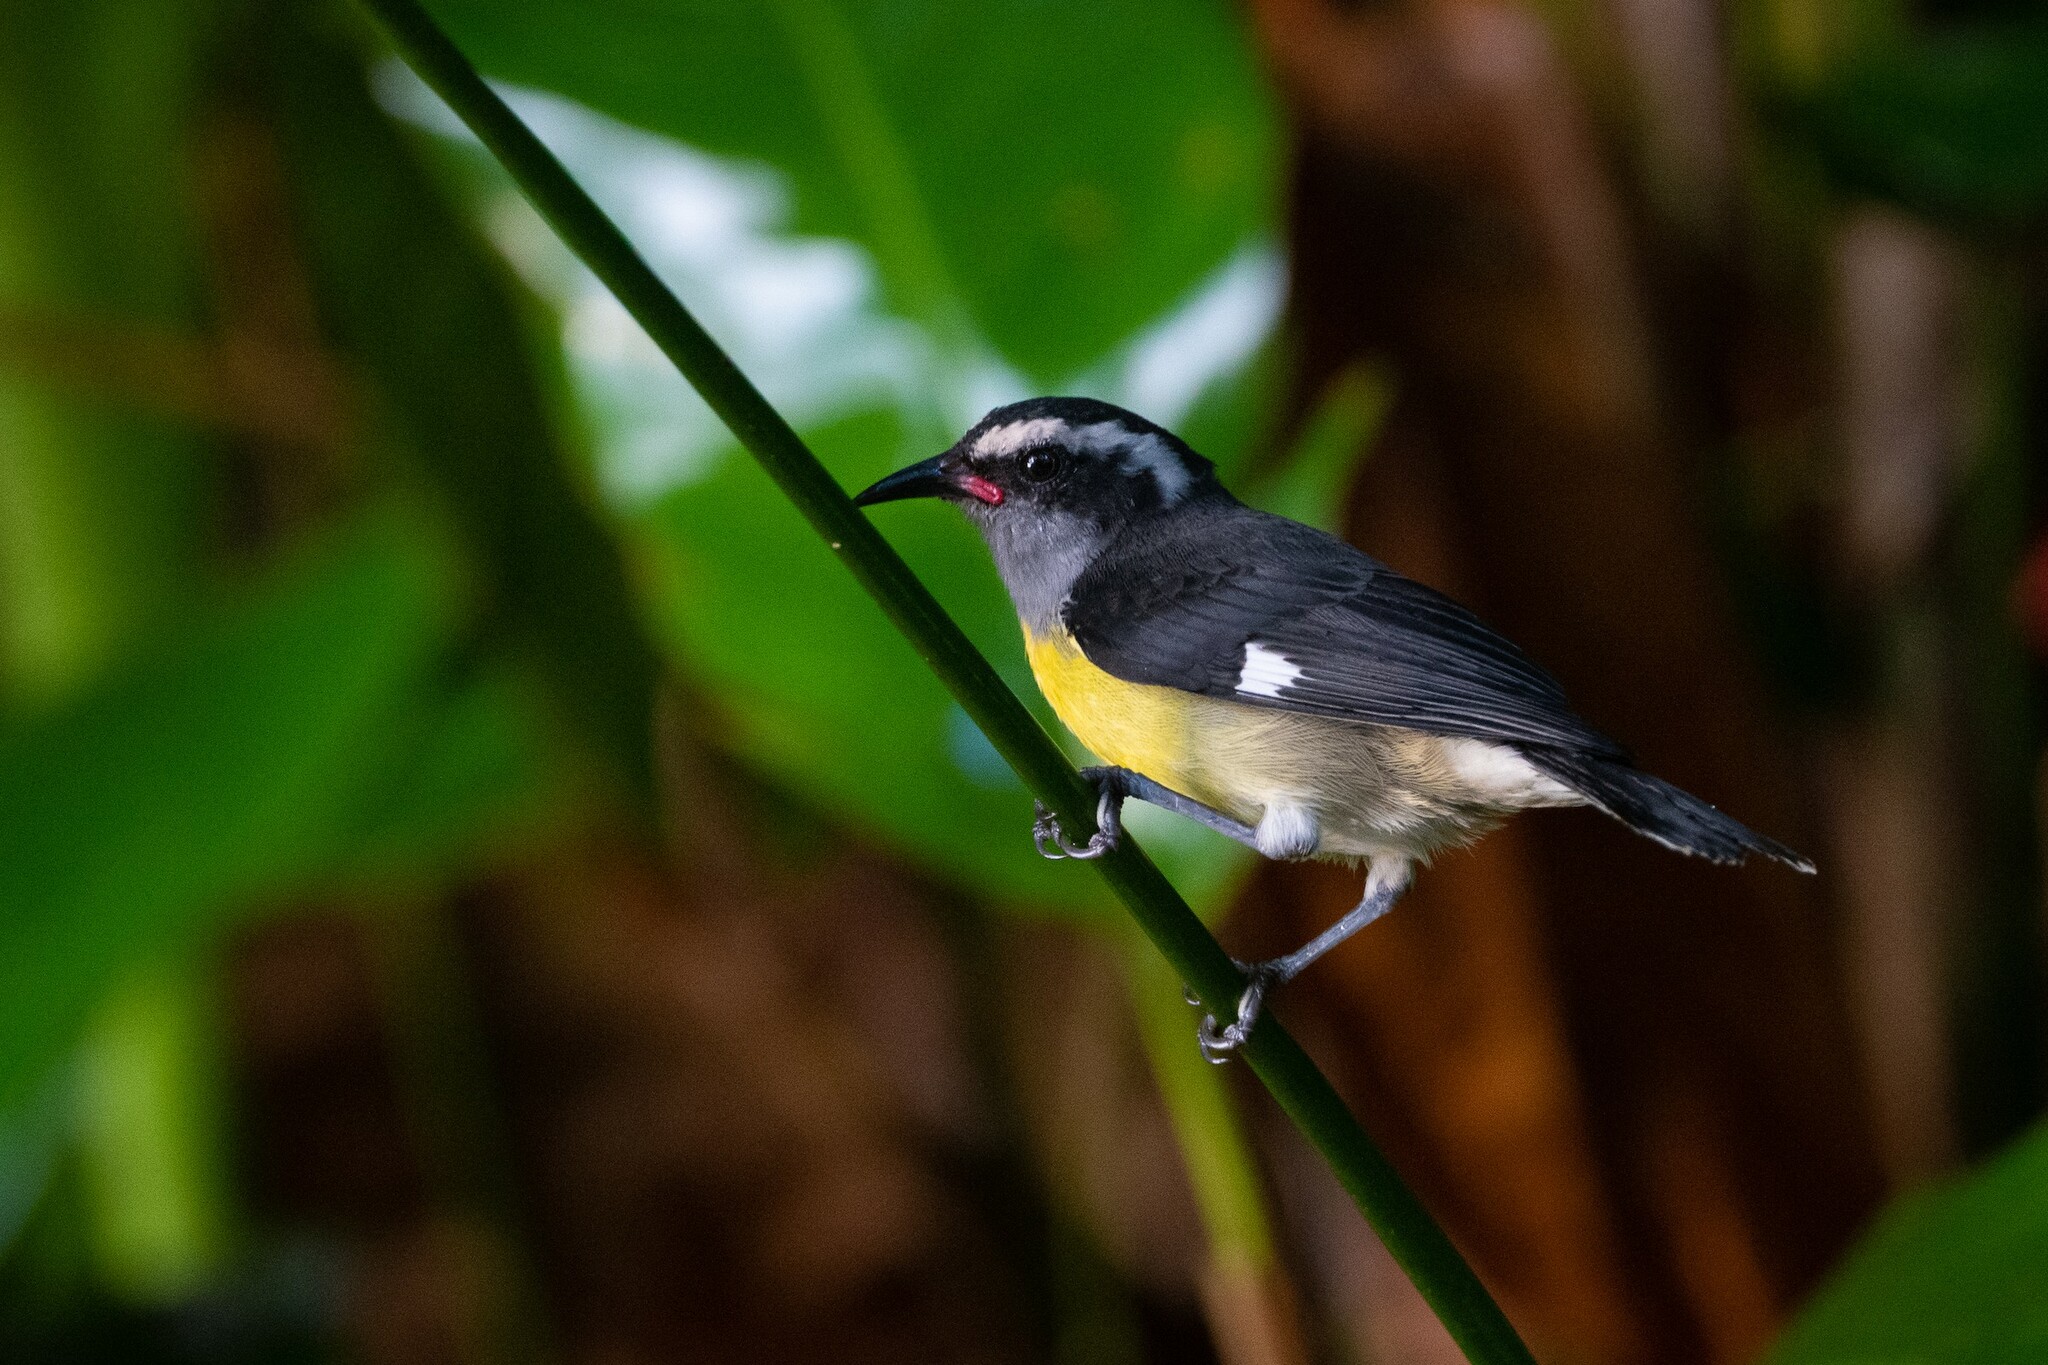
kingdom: Animalia
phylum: Chordata
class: Aves
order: Passeriformes
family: Thraupidae
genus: Coereba
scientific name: Coereba flaveola
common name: Bananaquit
